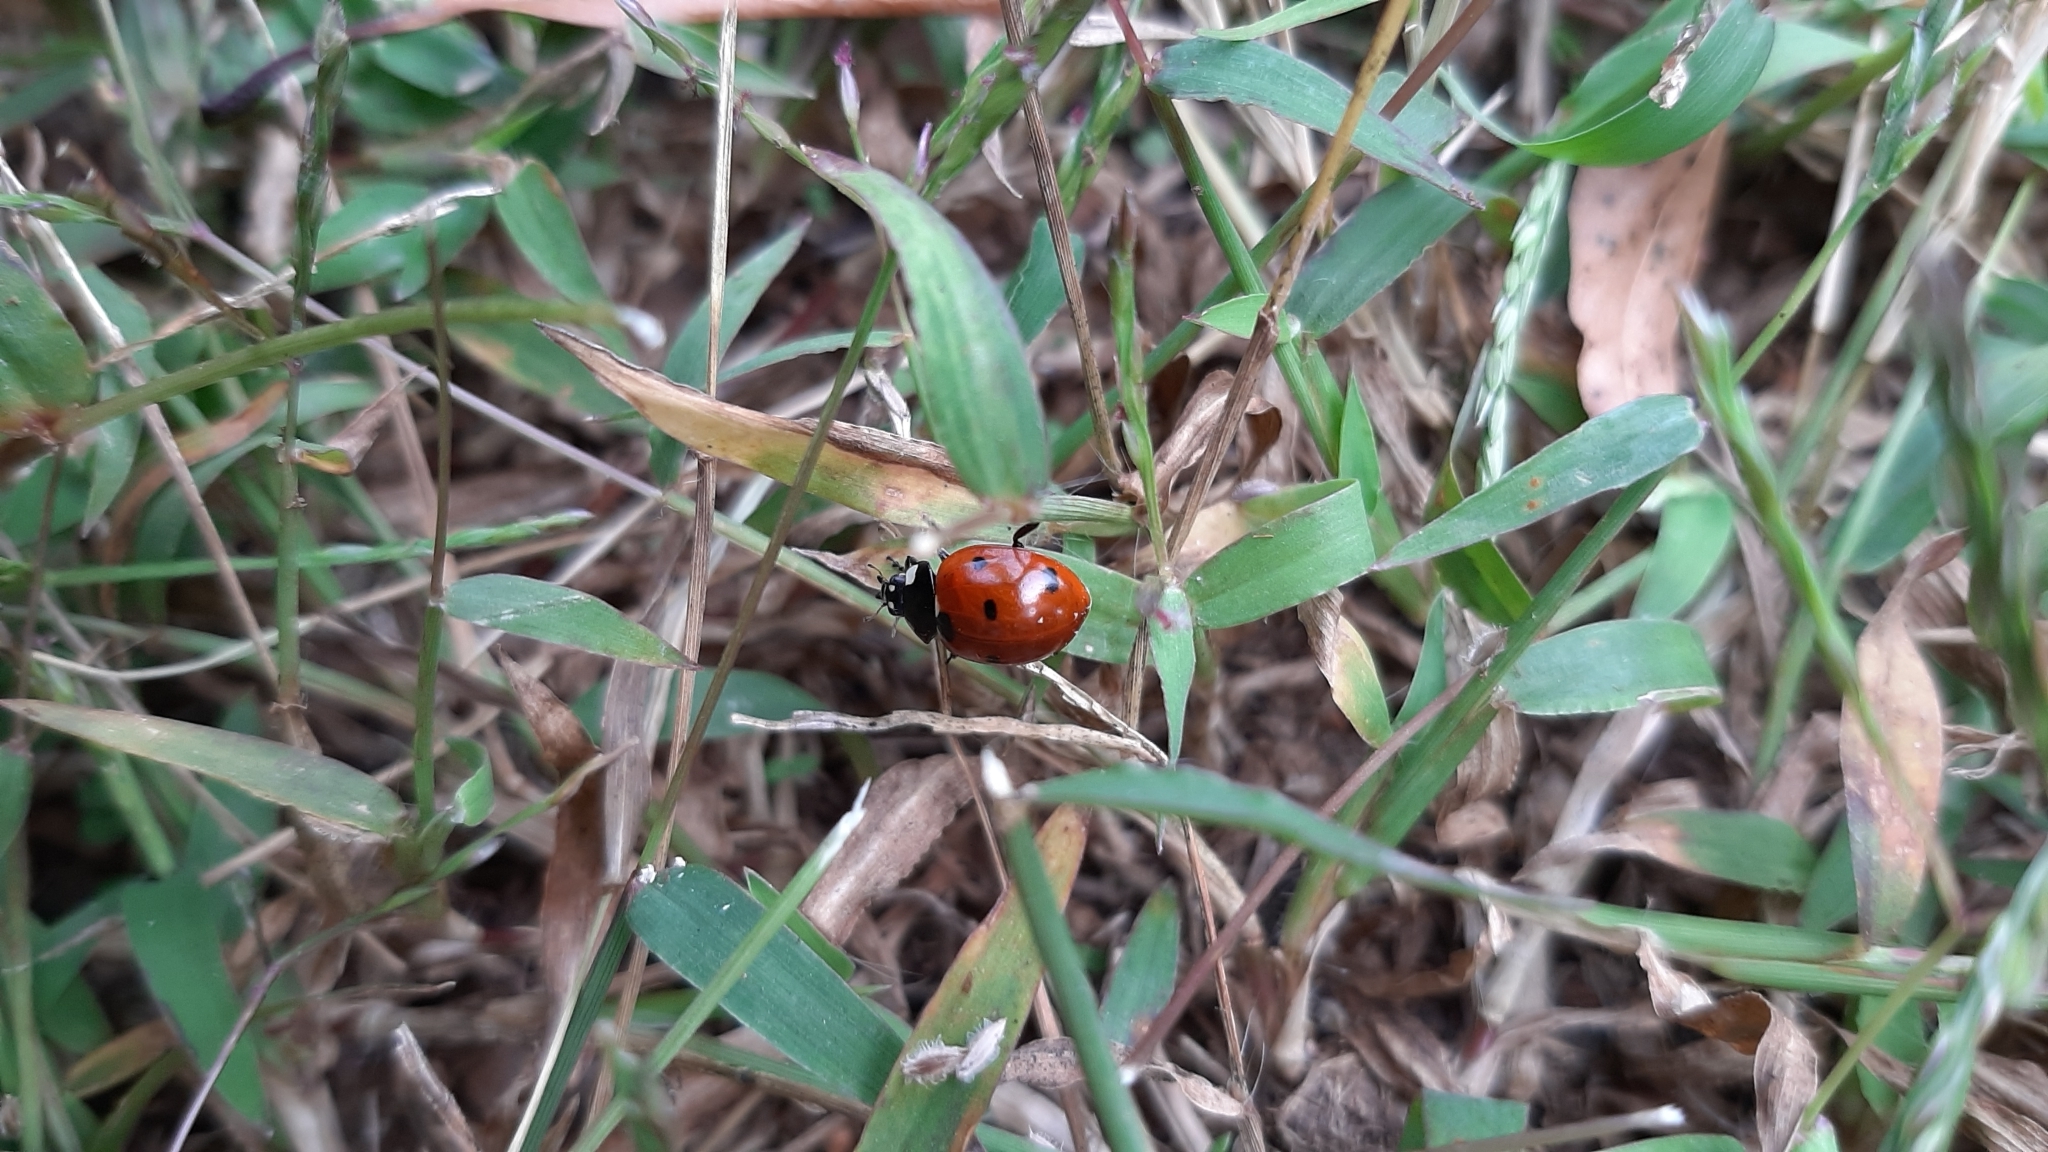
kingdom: Animalia
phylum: Arthropoda
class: Insecta
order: Coleoptera
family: Coccinellidae
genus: Coccinella
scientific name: Coccinella septempunctata
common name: Sevenspotted lady beetle
